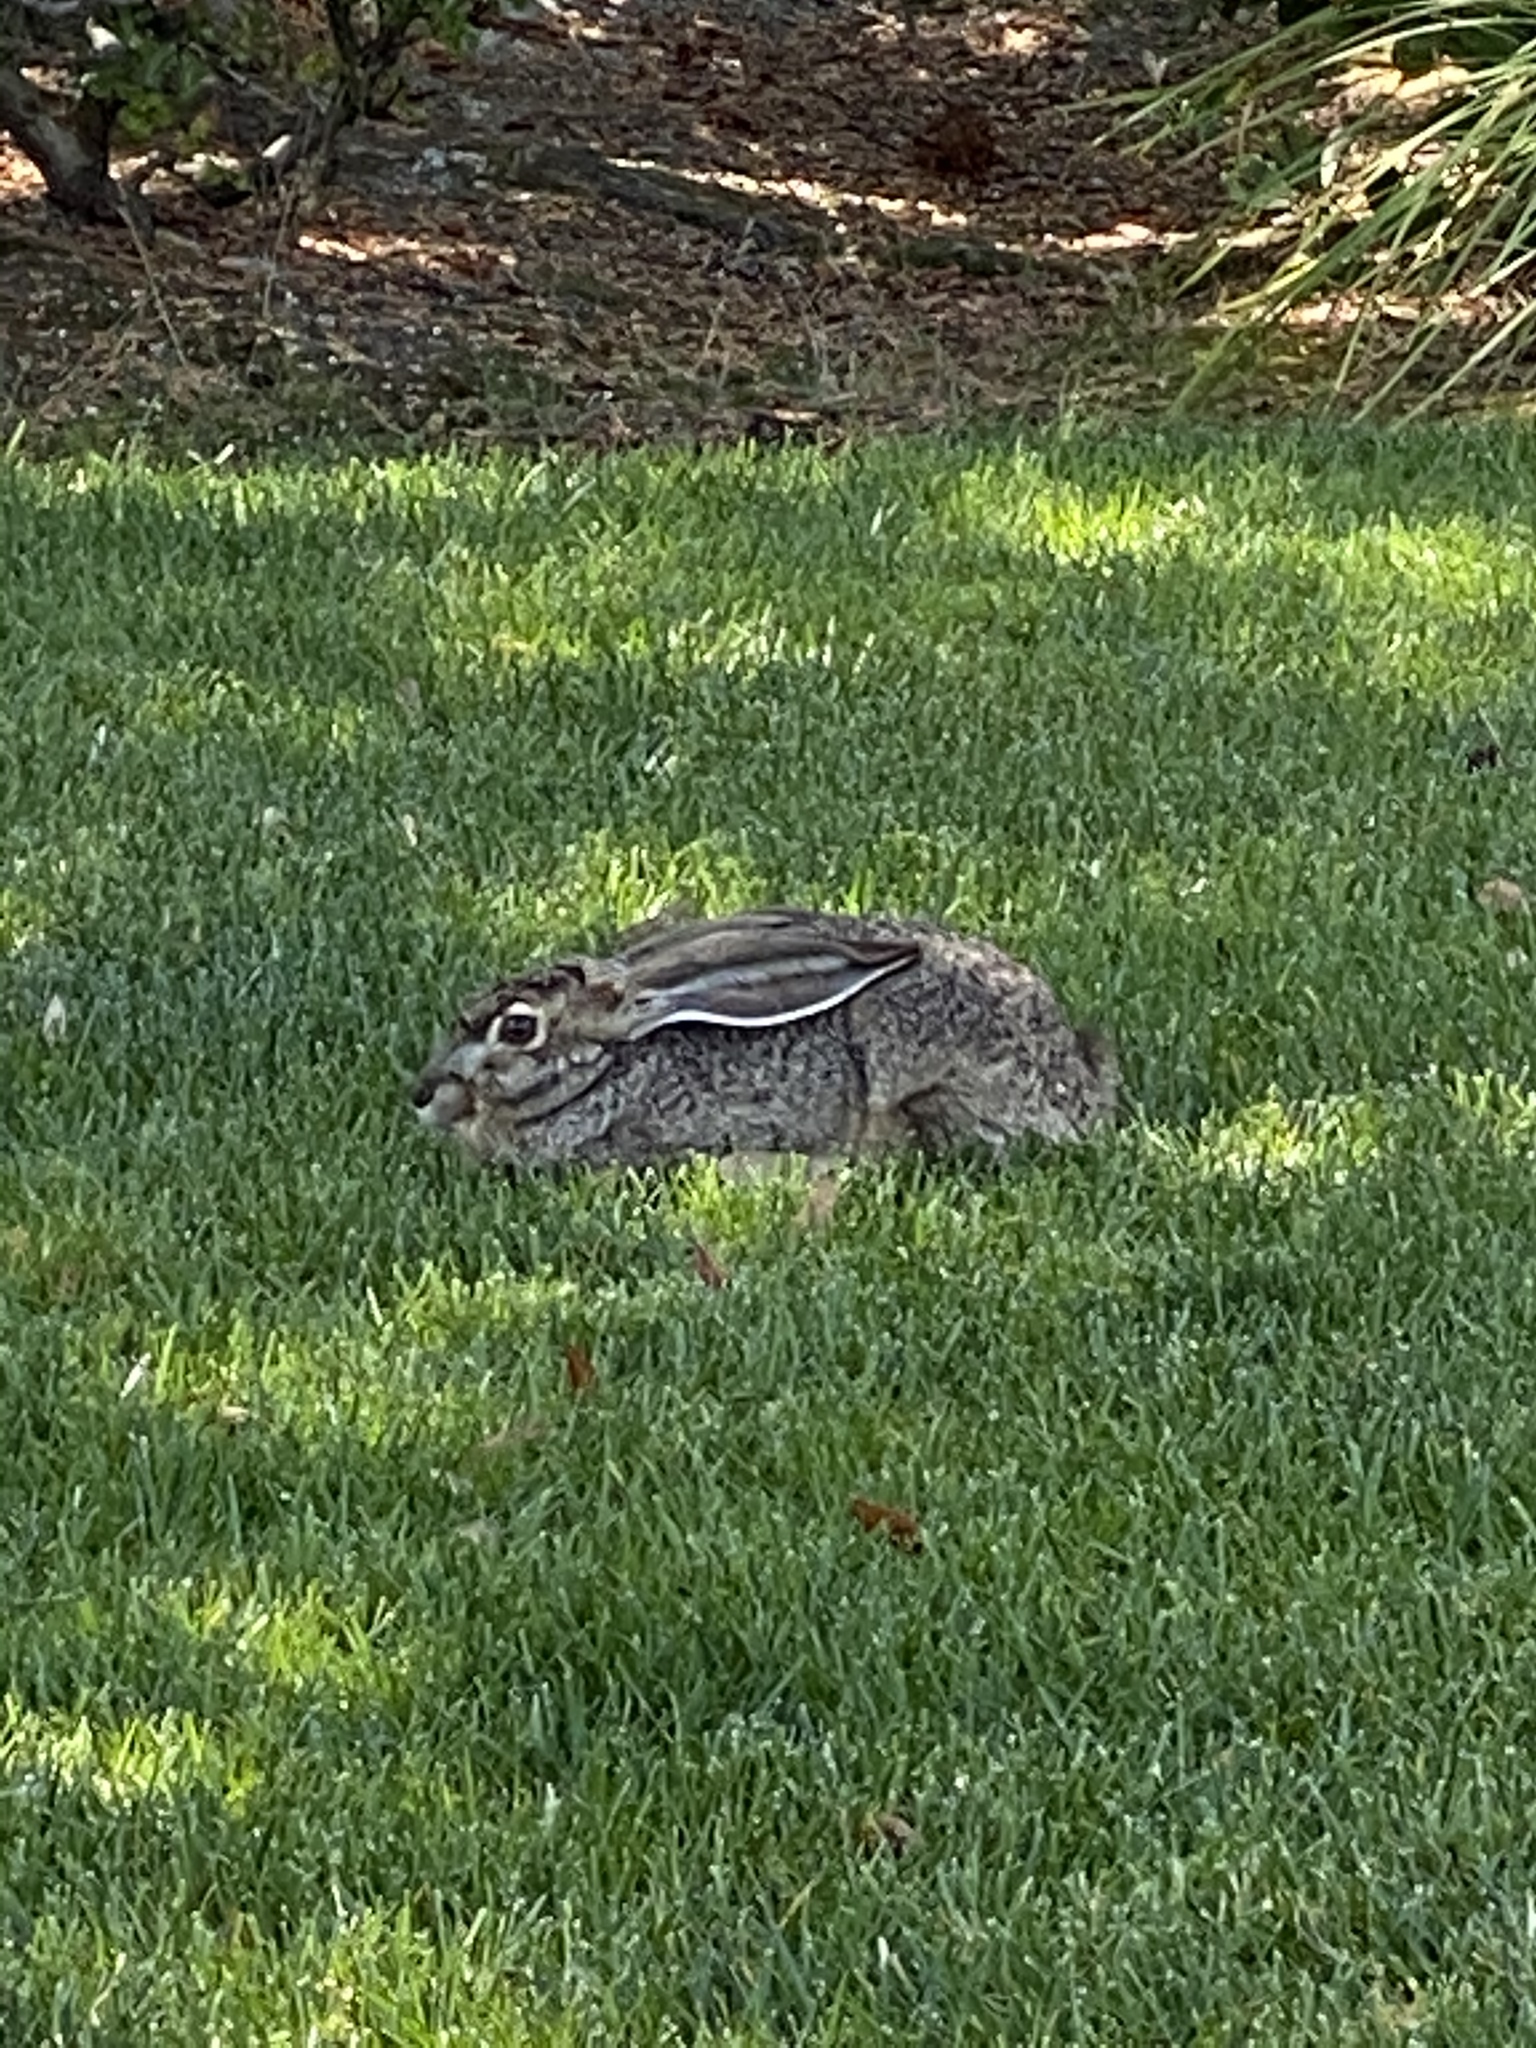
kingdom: Animalia
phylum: Chordata
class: Mammalia
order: Lagomorpha
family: Leporidae
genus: Lepus
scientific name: Lepus californicus
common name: Black-tailed jackrabbit
